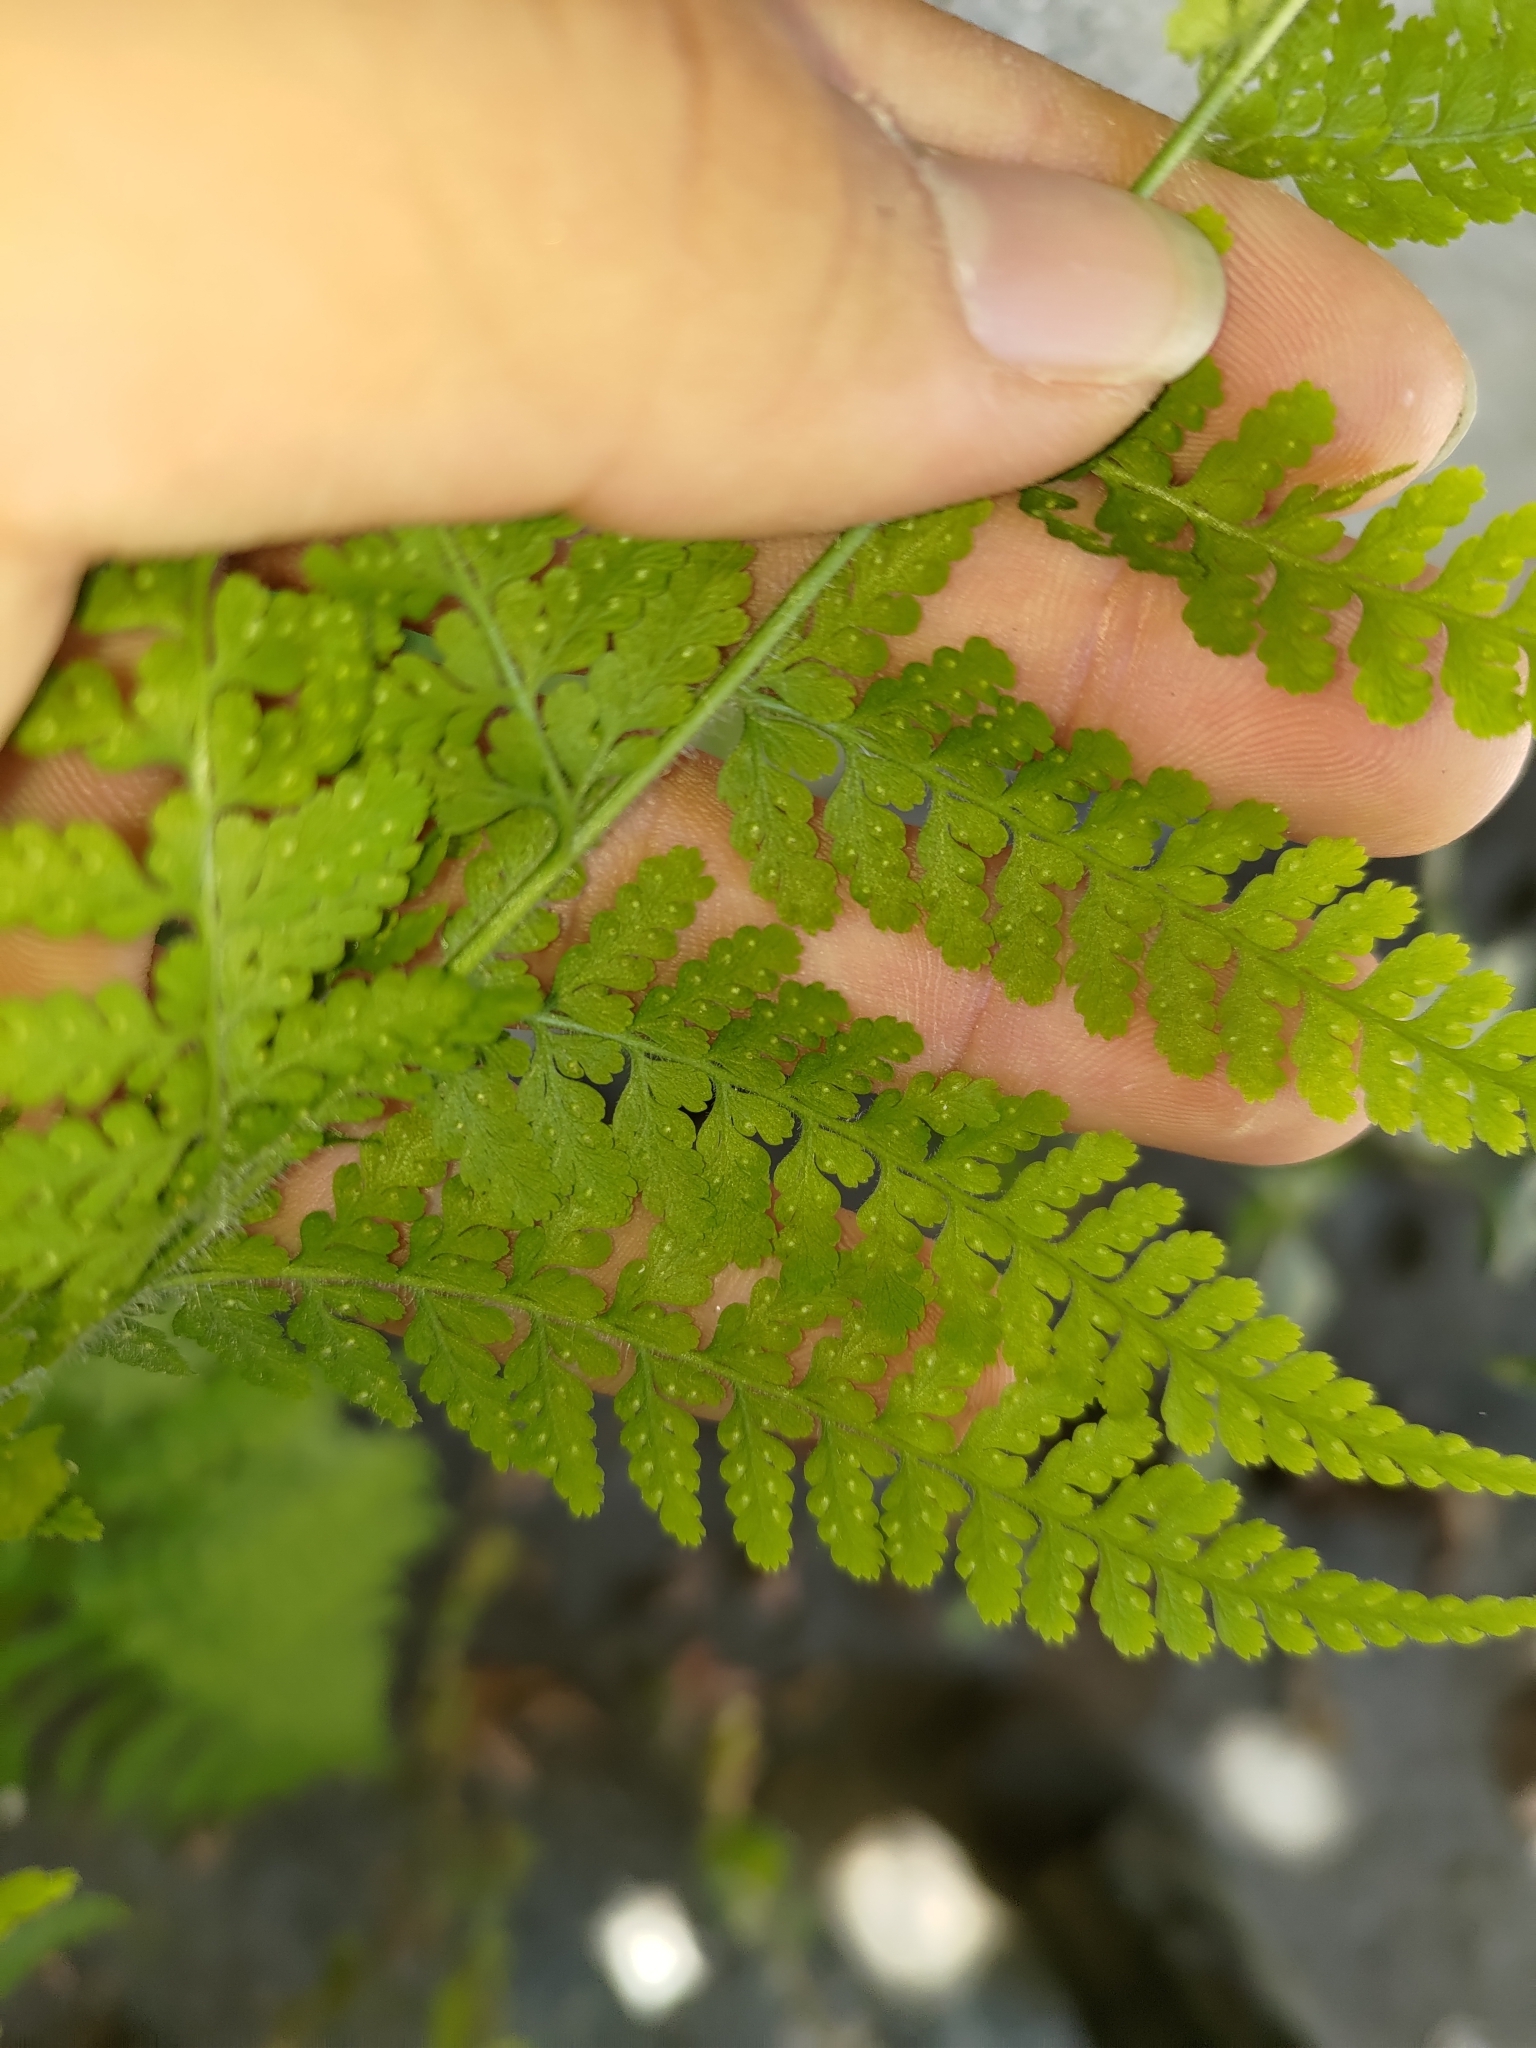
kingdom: Plantae
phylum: Tracheophyta
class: Polypodiopsida
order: Polypodiales
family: Dennstaedtiaceae
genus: Microlepia
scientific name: Microlepia speluncae
